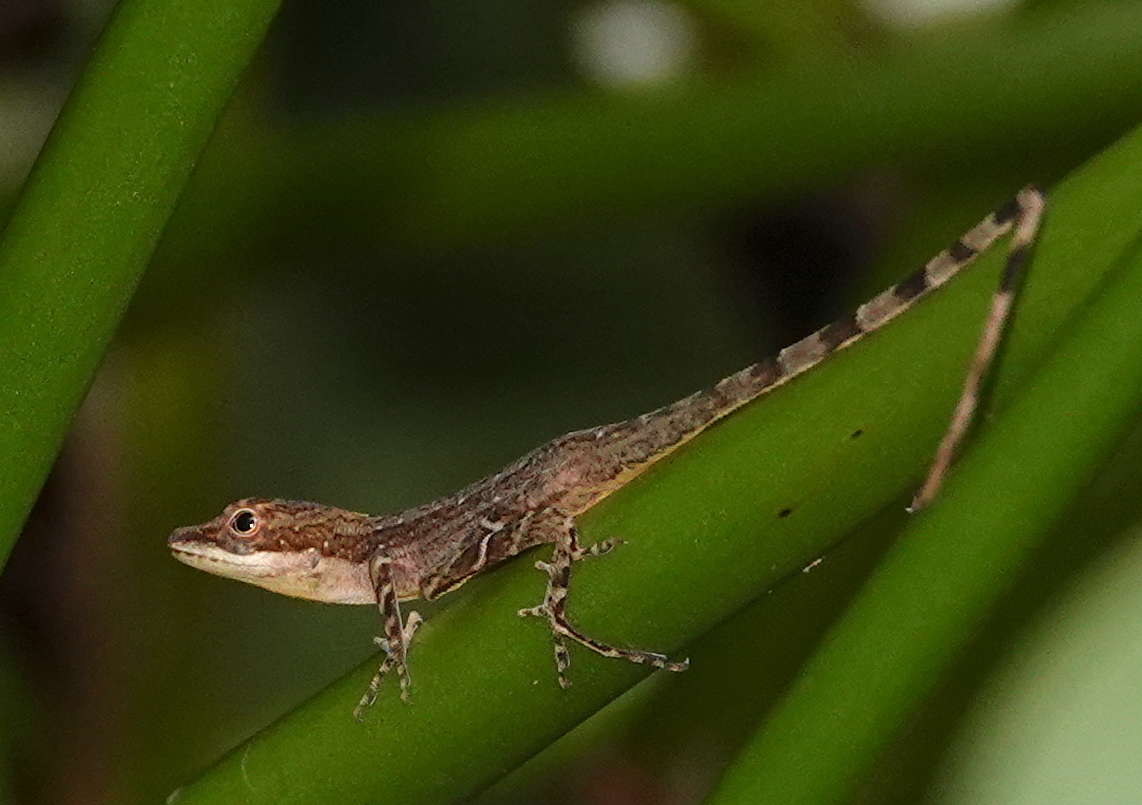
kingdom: Animalia
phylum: Chordata
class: Squamata
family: Dactyloidae
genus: Anolis
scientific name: Anolis limifrons
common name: Border anole
